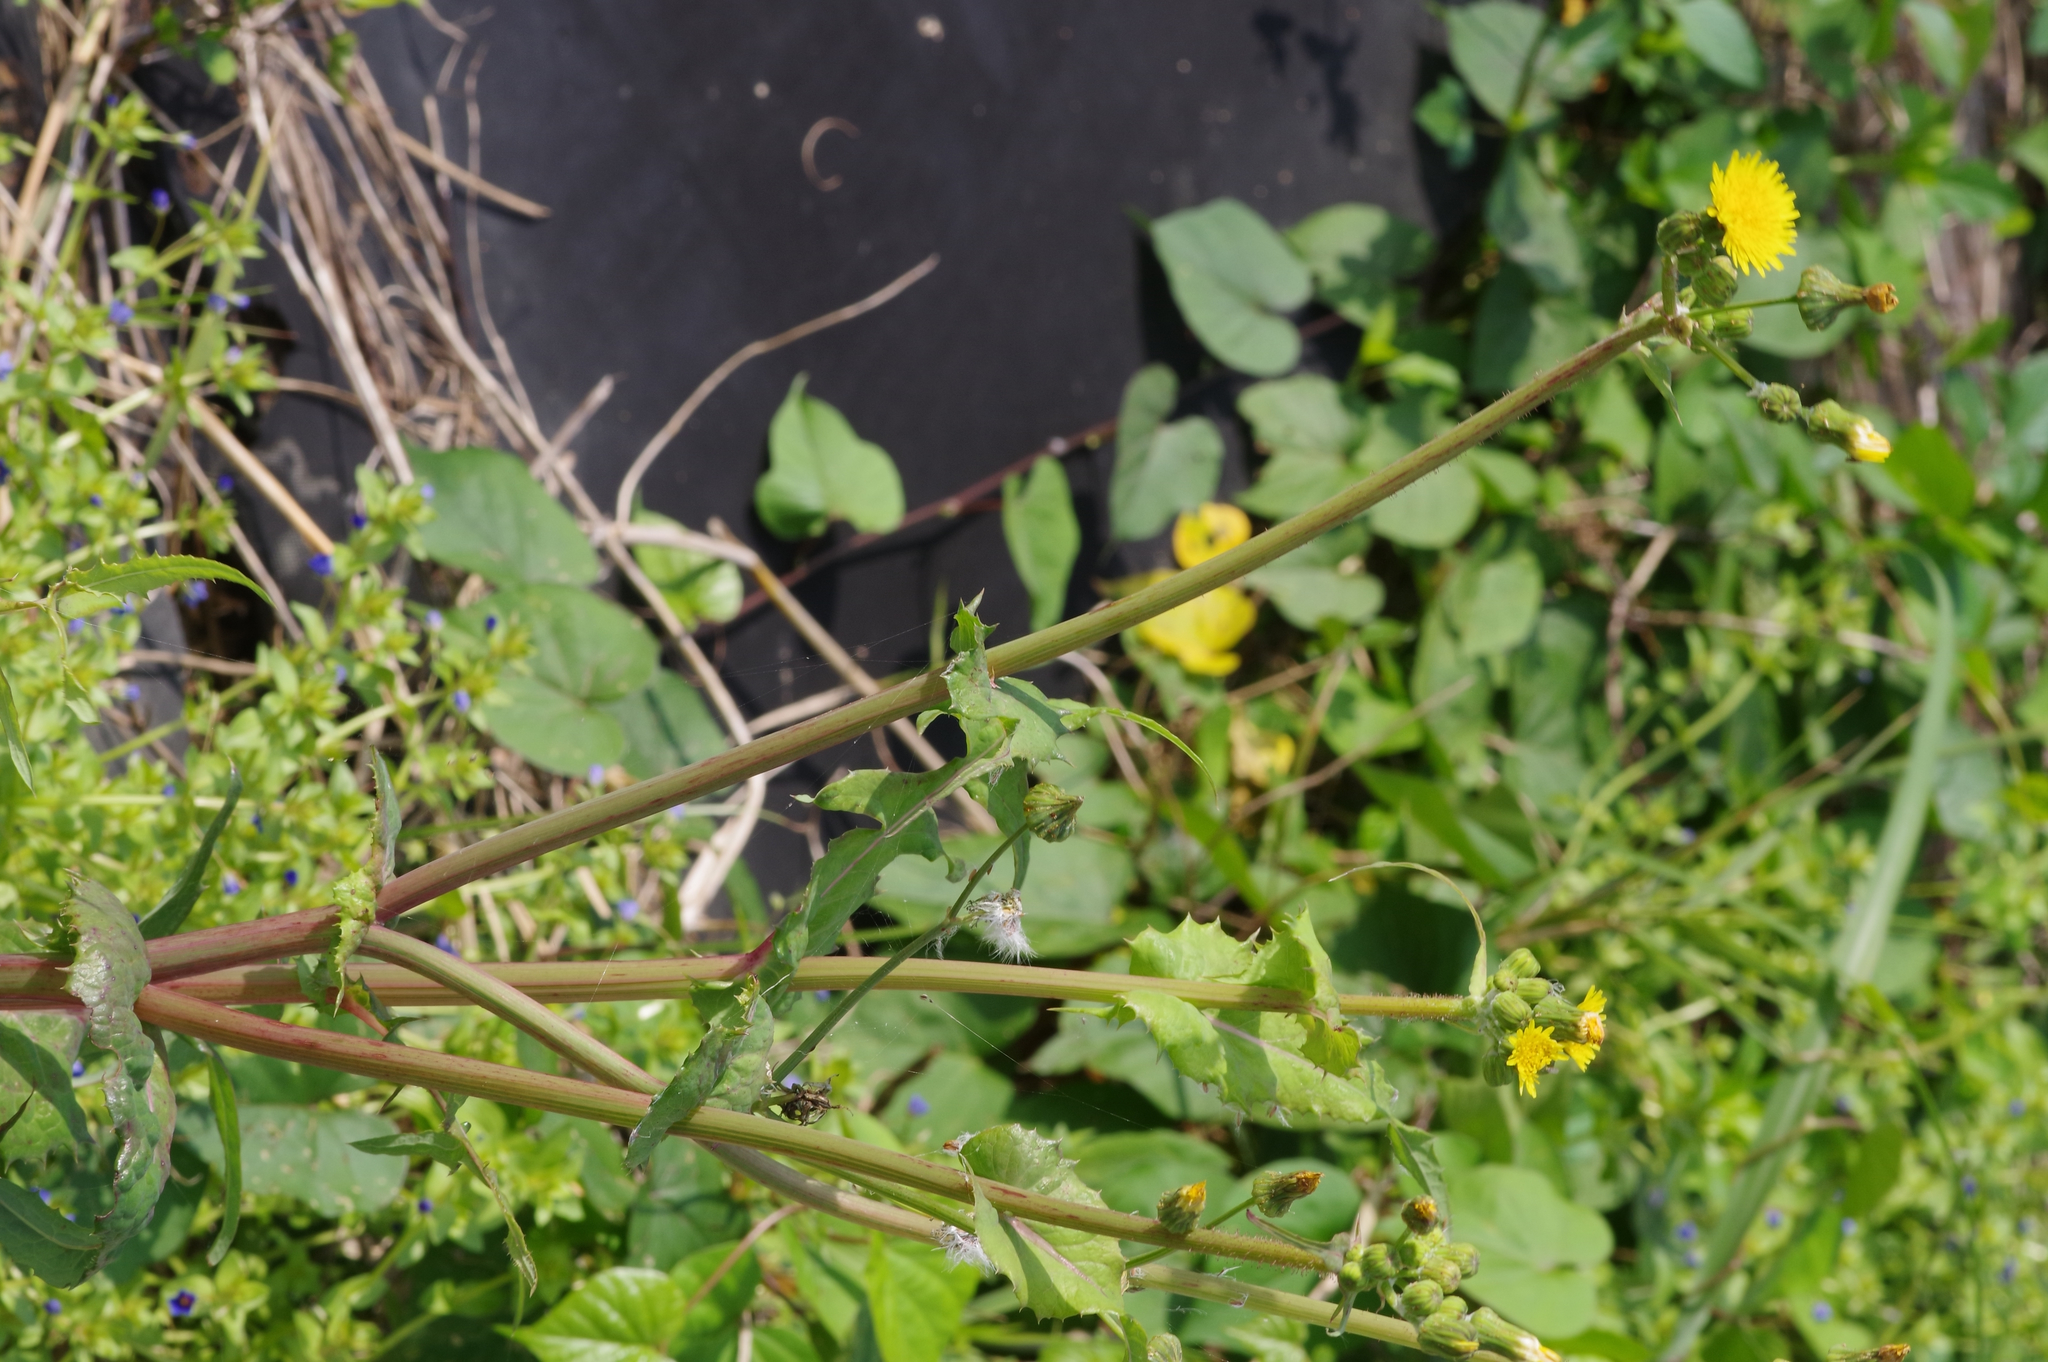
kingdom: Plantae
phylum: Tracheophyta
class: Magnoliopsida
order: Asterales
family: Asteraceae
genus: Sonchus
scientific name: Sonchus oleraceus
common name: Common sowthistle
